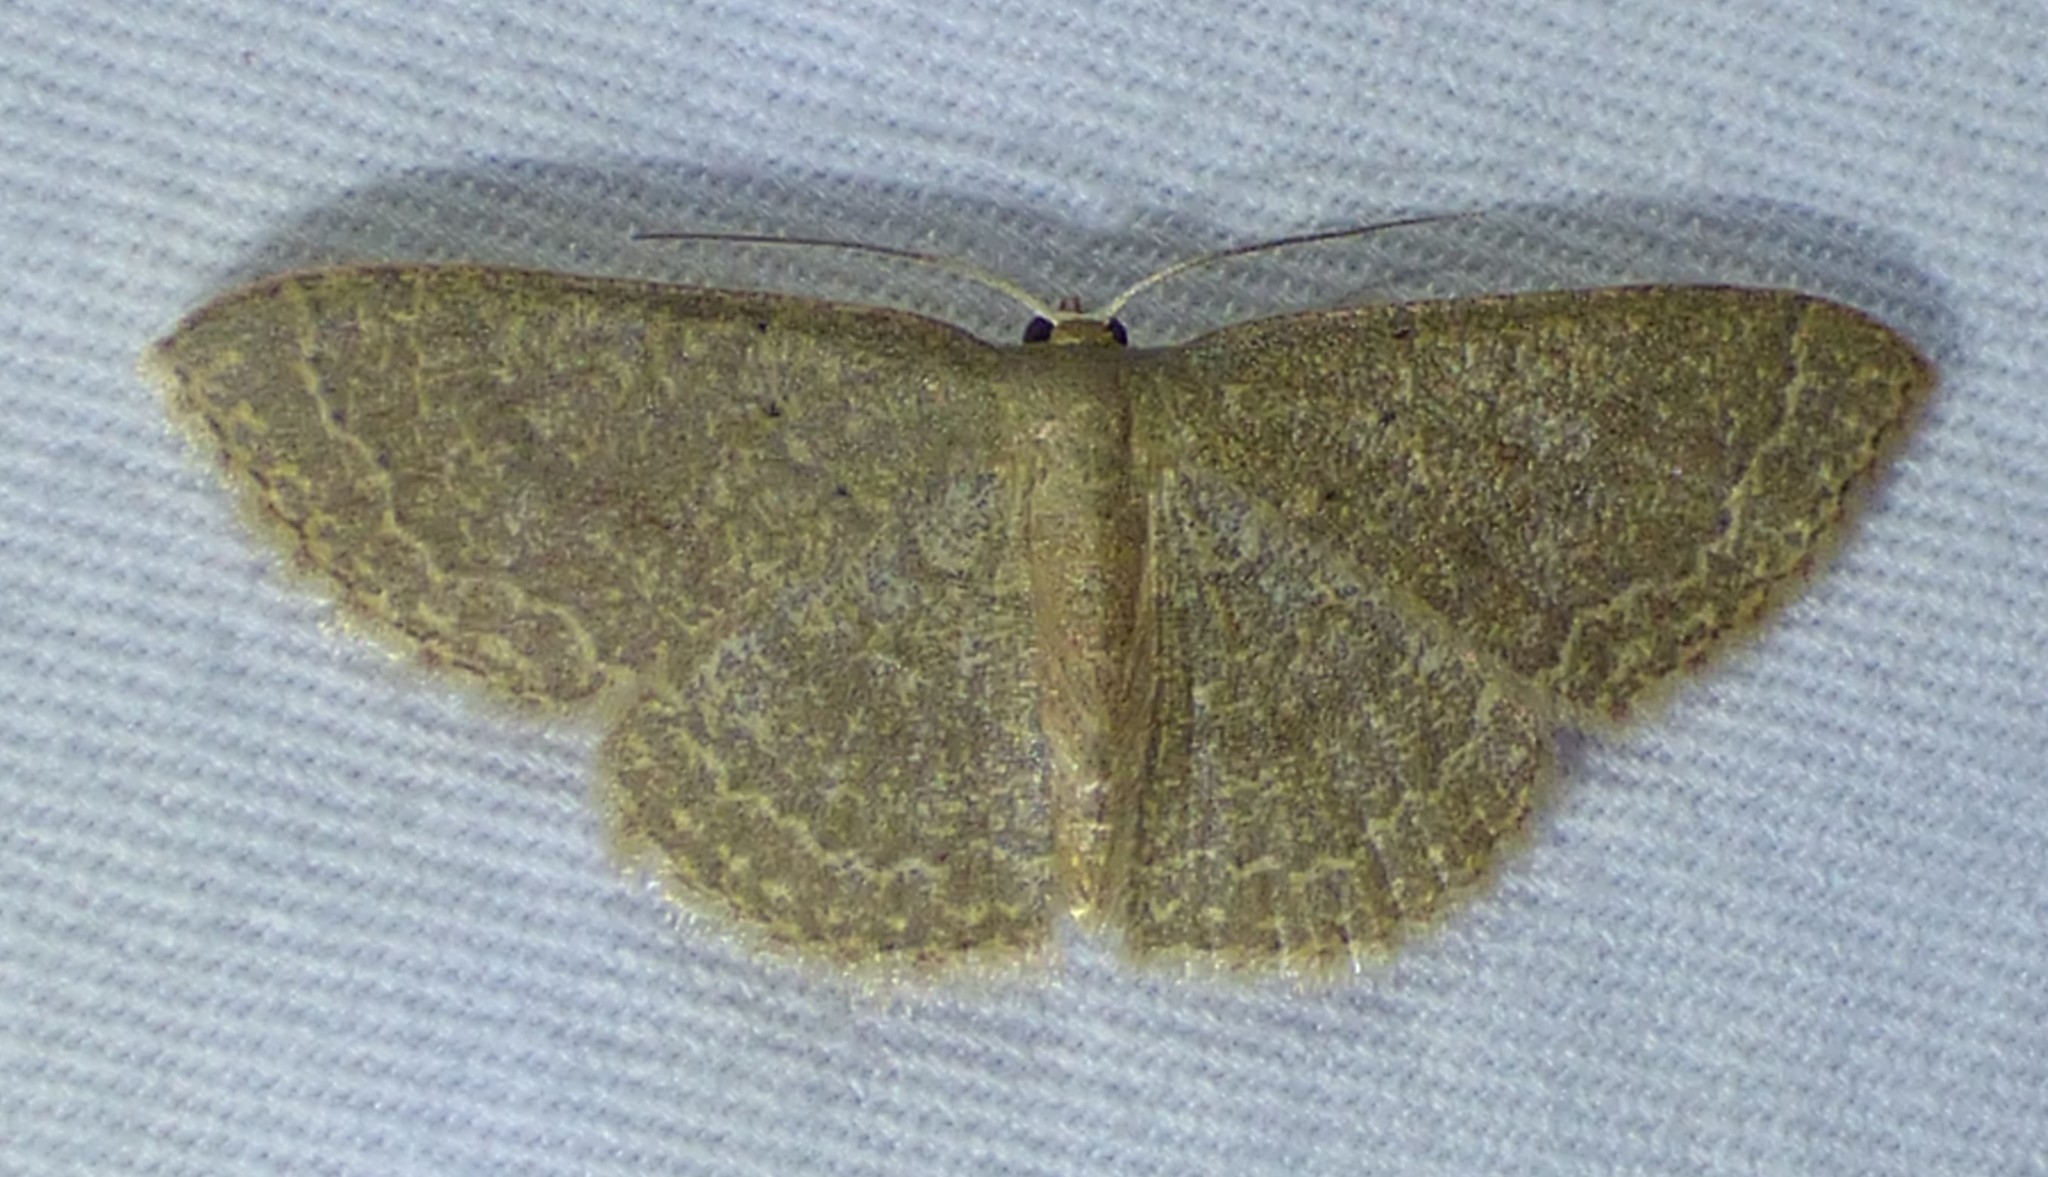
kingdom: Animalia
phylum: Arthropoda
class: Insecta
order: Lepidoptera
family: Geometridae
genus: Pleuroprucha
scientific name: Pleuroprucha insulsaria
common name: Common tan wave
